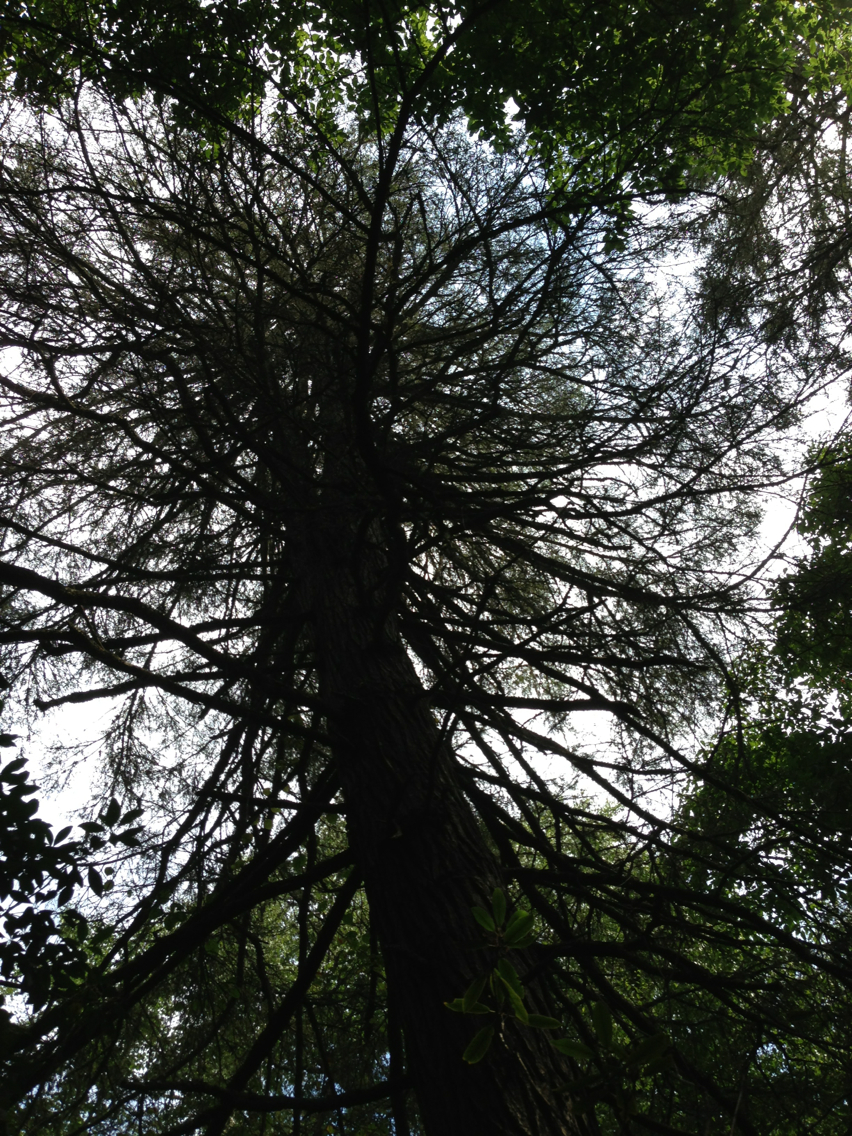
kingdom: Plantae
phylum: Tracheophyta
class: Pinopsida
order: Pinales
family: Pinaceae
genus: Tsuga
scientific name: Tsuga canadensis
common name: Eastern hemlock
